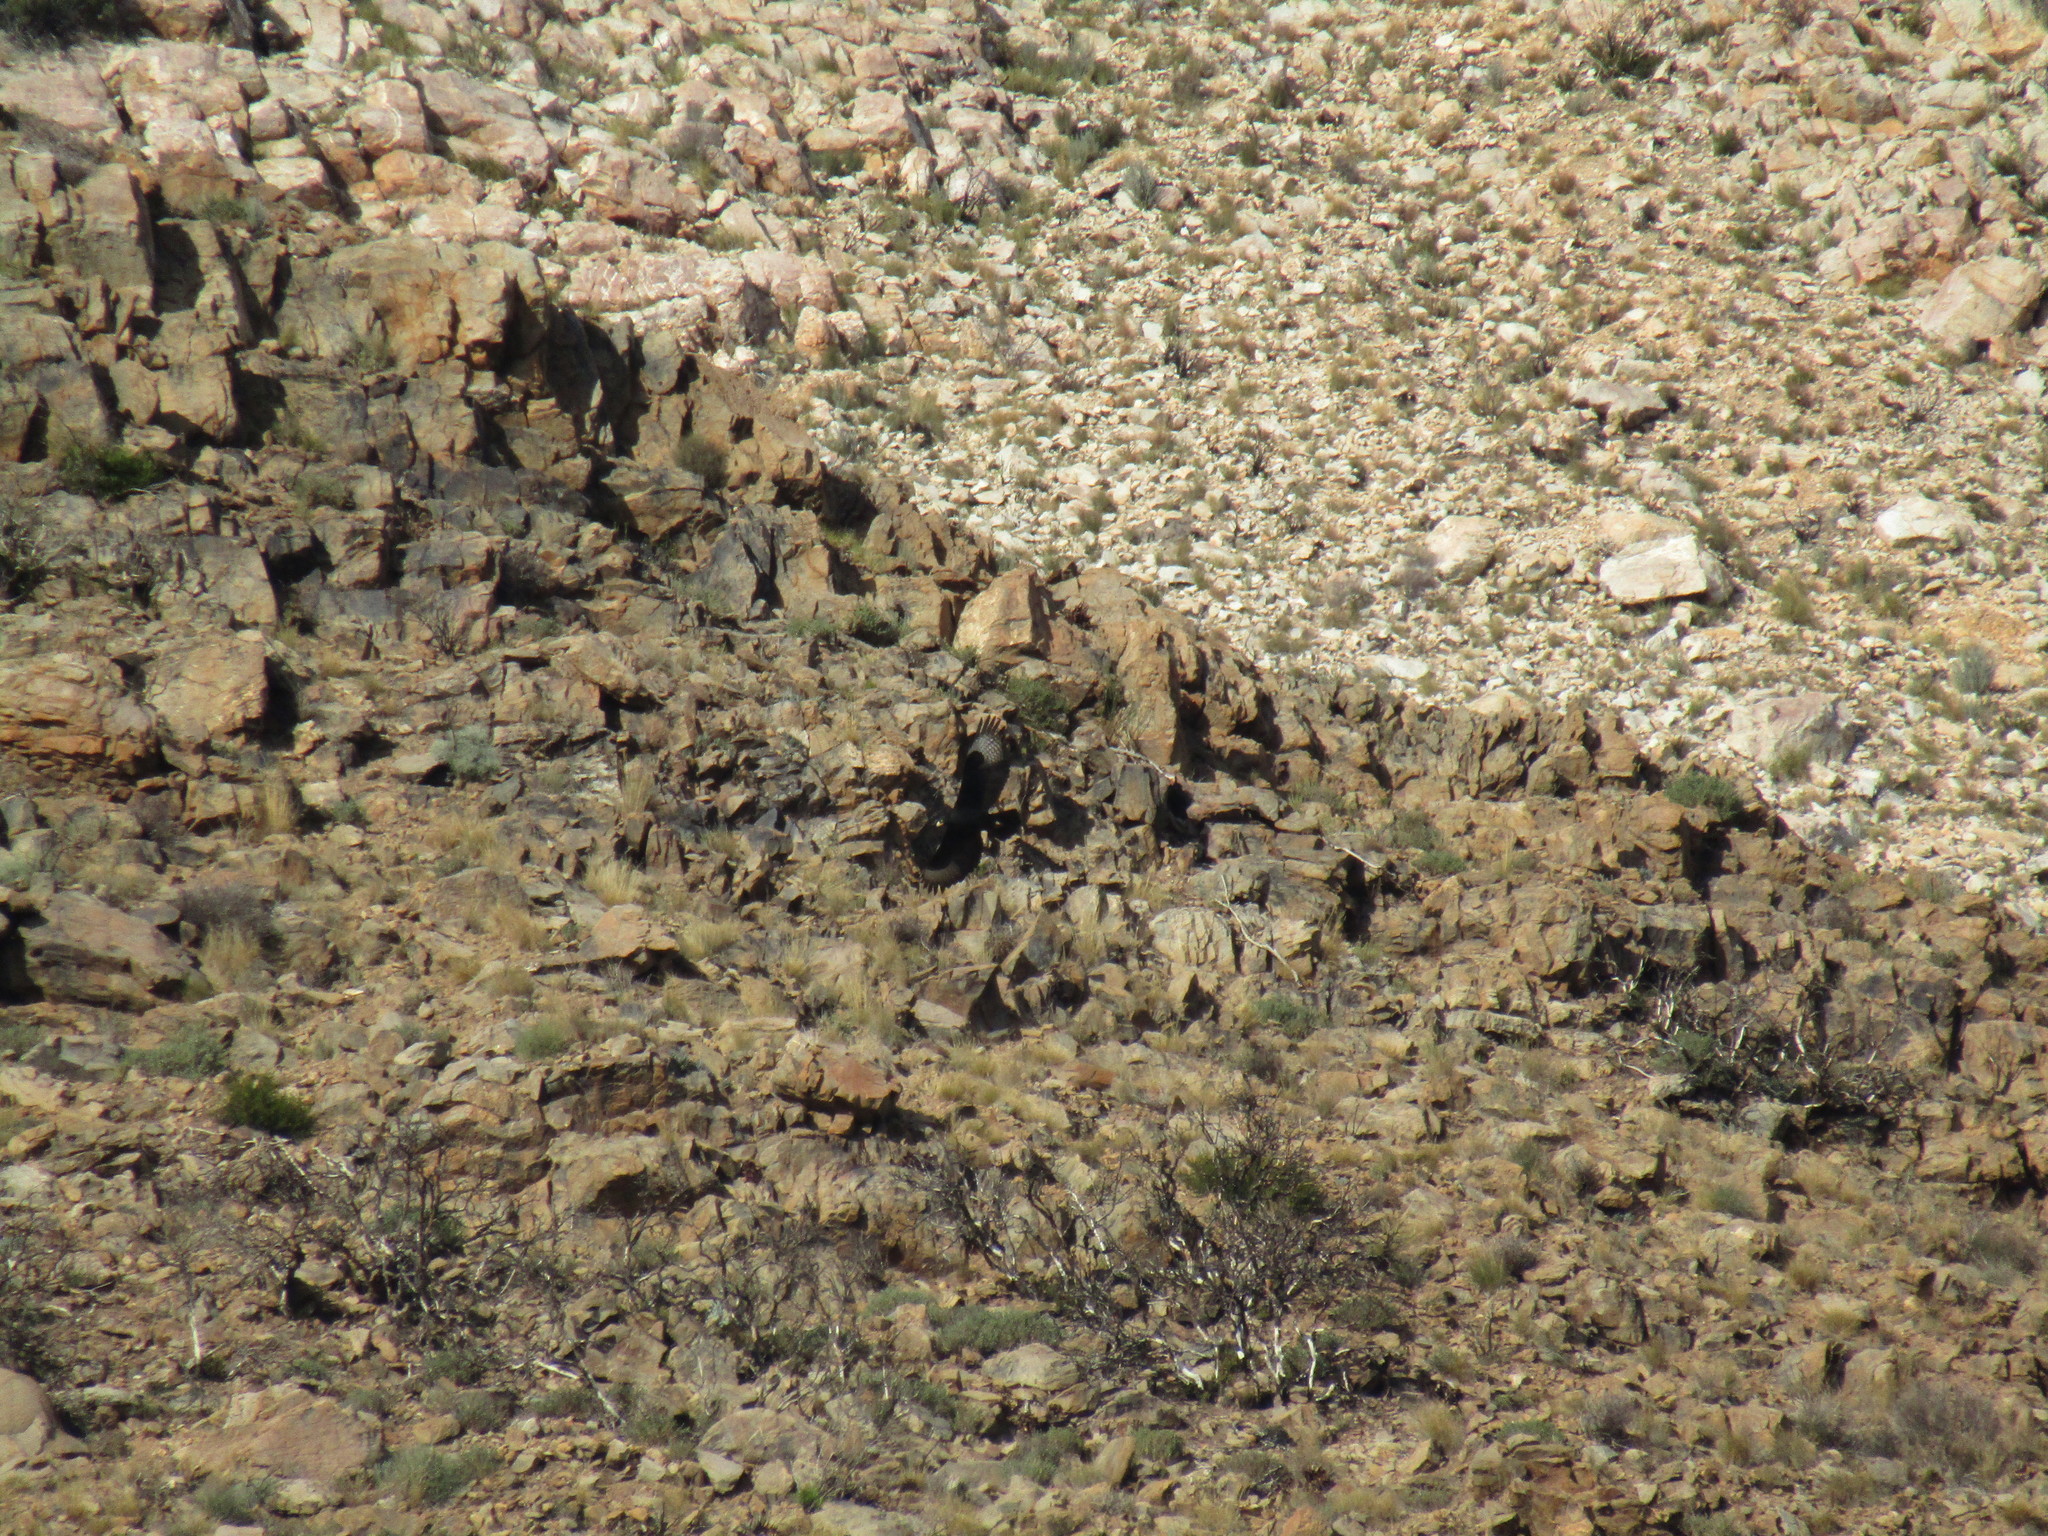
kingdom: Animalia
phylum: Chordata
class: Aves
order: Accipitriformes
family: Accipitridae
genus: Aquila
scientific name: Aquila verreauxii
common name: Verreaux's eagle
